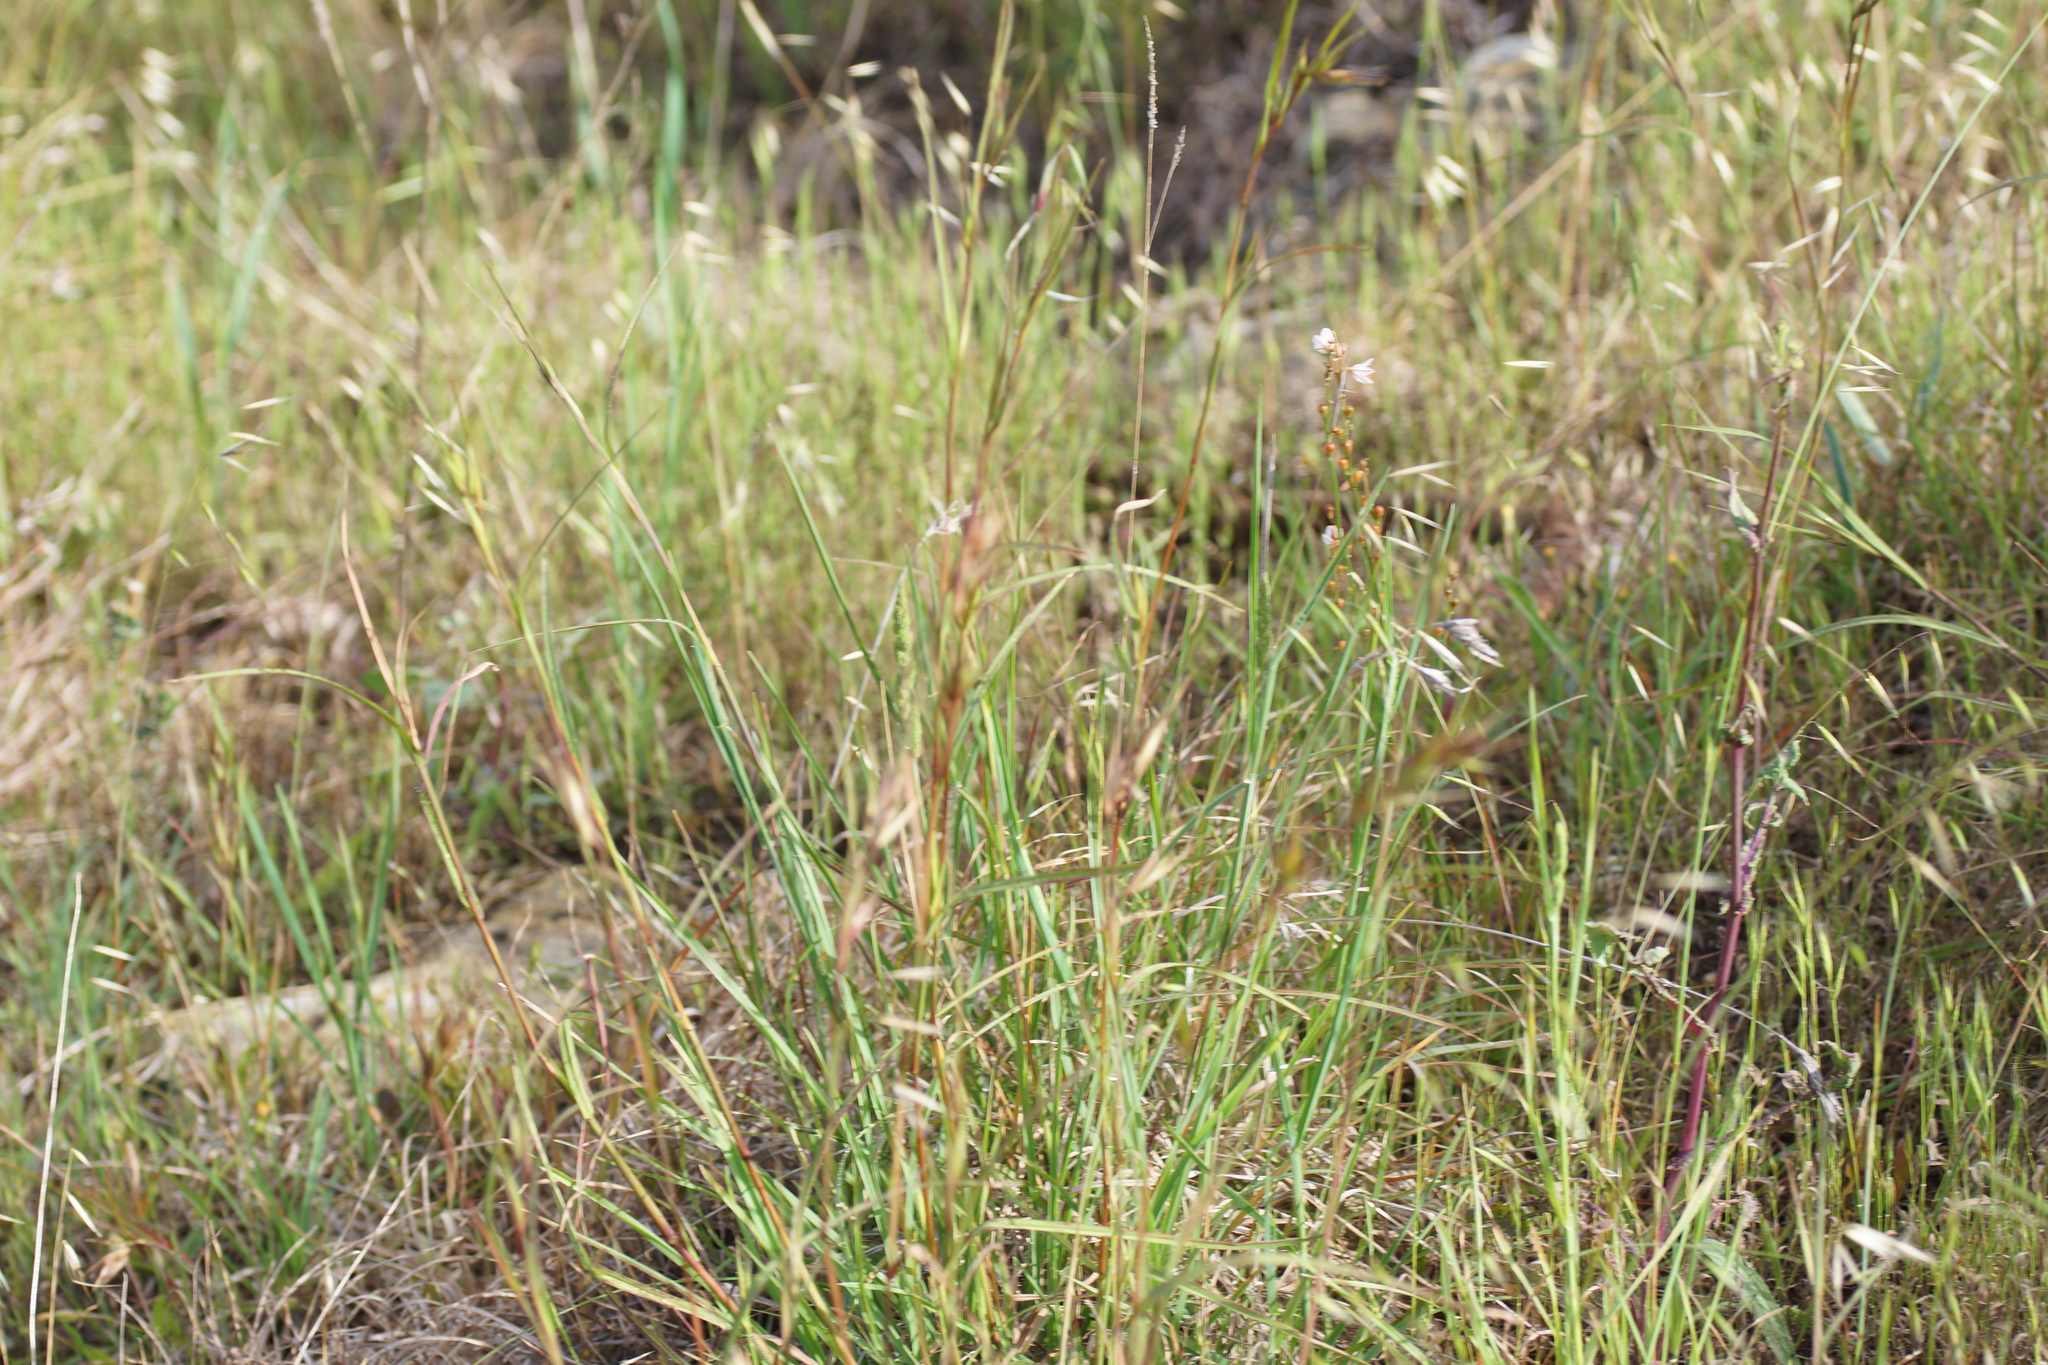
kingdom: Plantae
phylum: Tracheophyta
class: Liliopsida
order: Poales
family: Poaceae
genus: Themeda
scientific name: Themeda triandra
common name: Kangaroo grass
